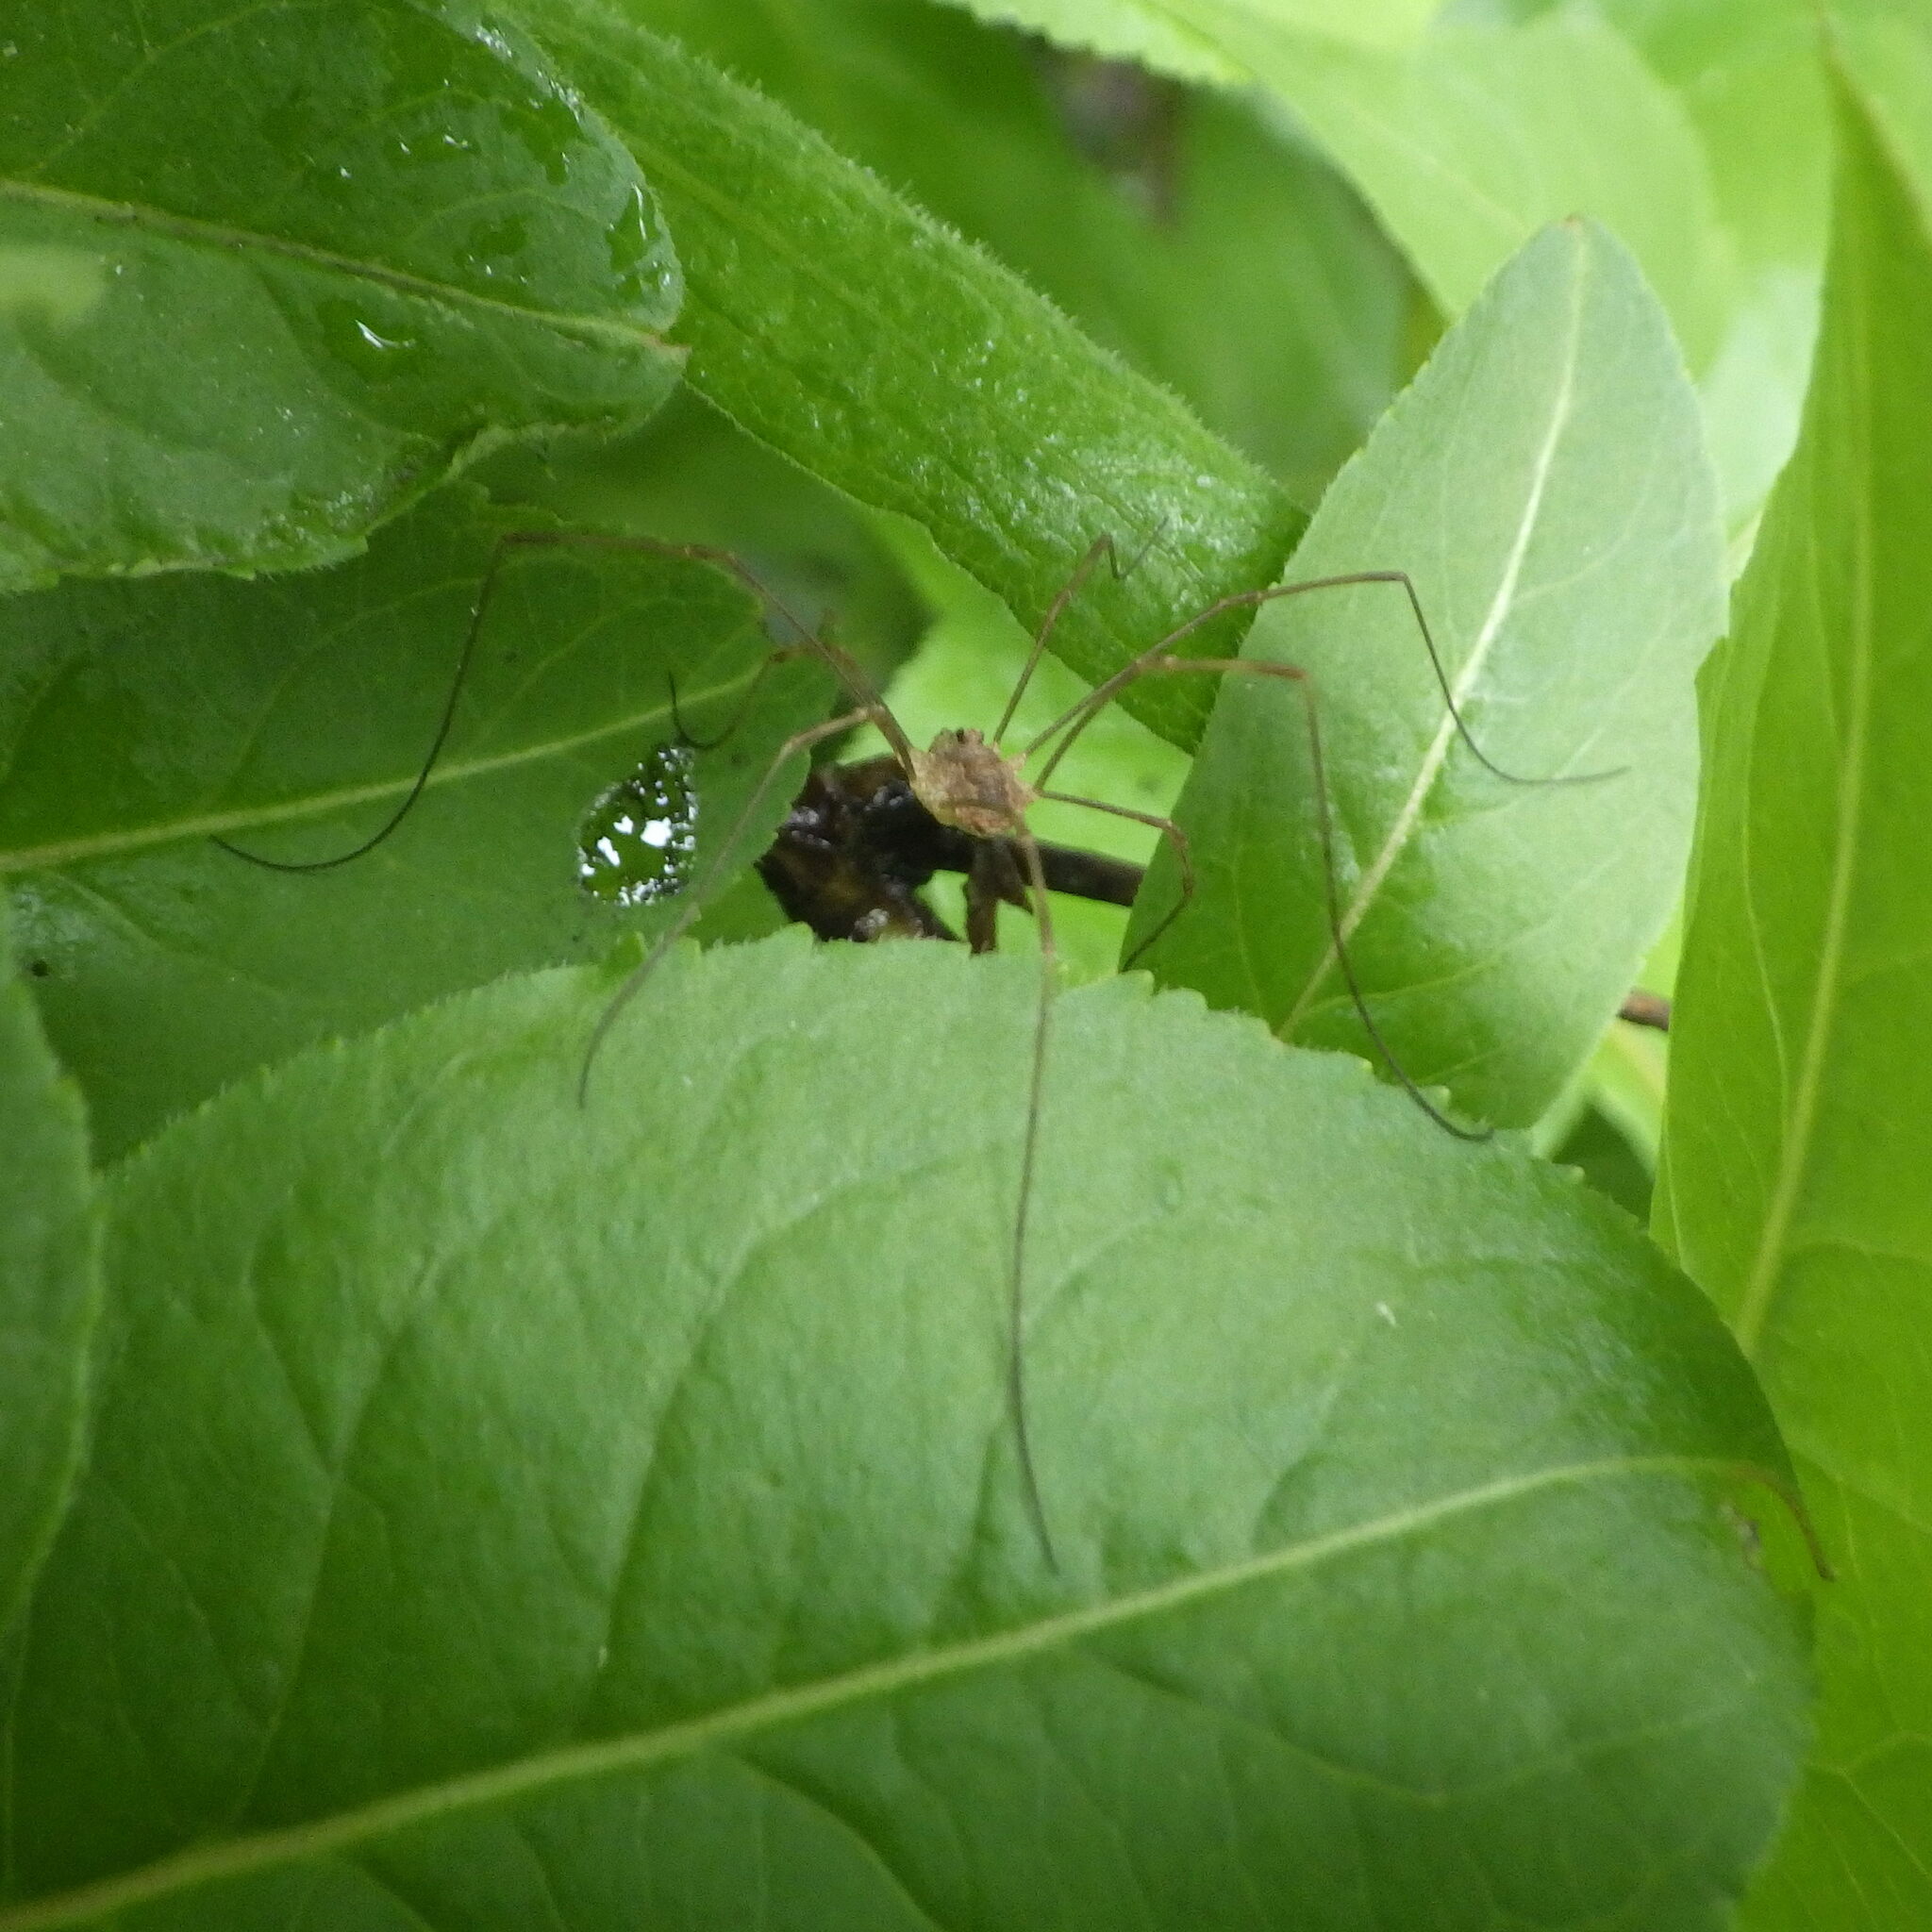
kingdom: Animalia
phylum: Arthropoda
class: Arachnida
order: Opiliones
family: Phalangiidae
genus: Rilaena
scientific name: Rilaena triangularis
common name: Spring harvestman
